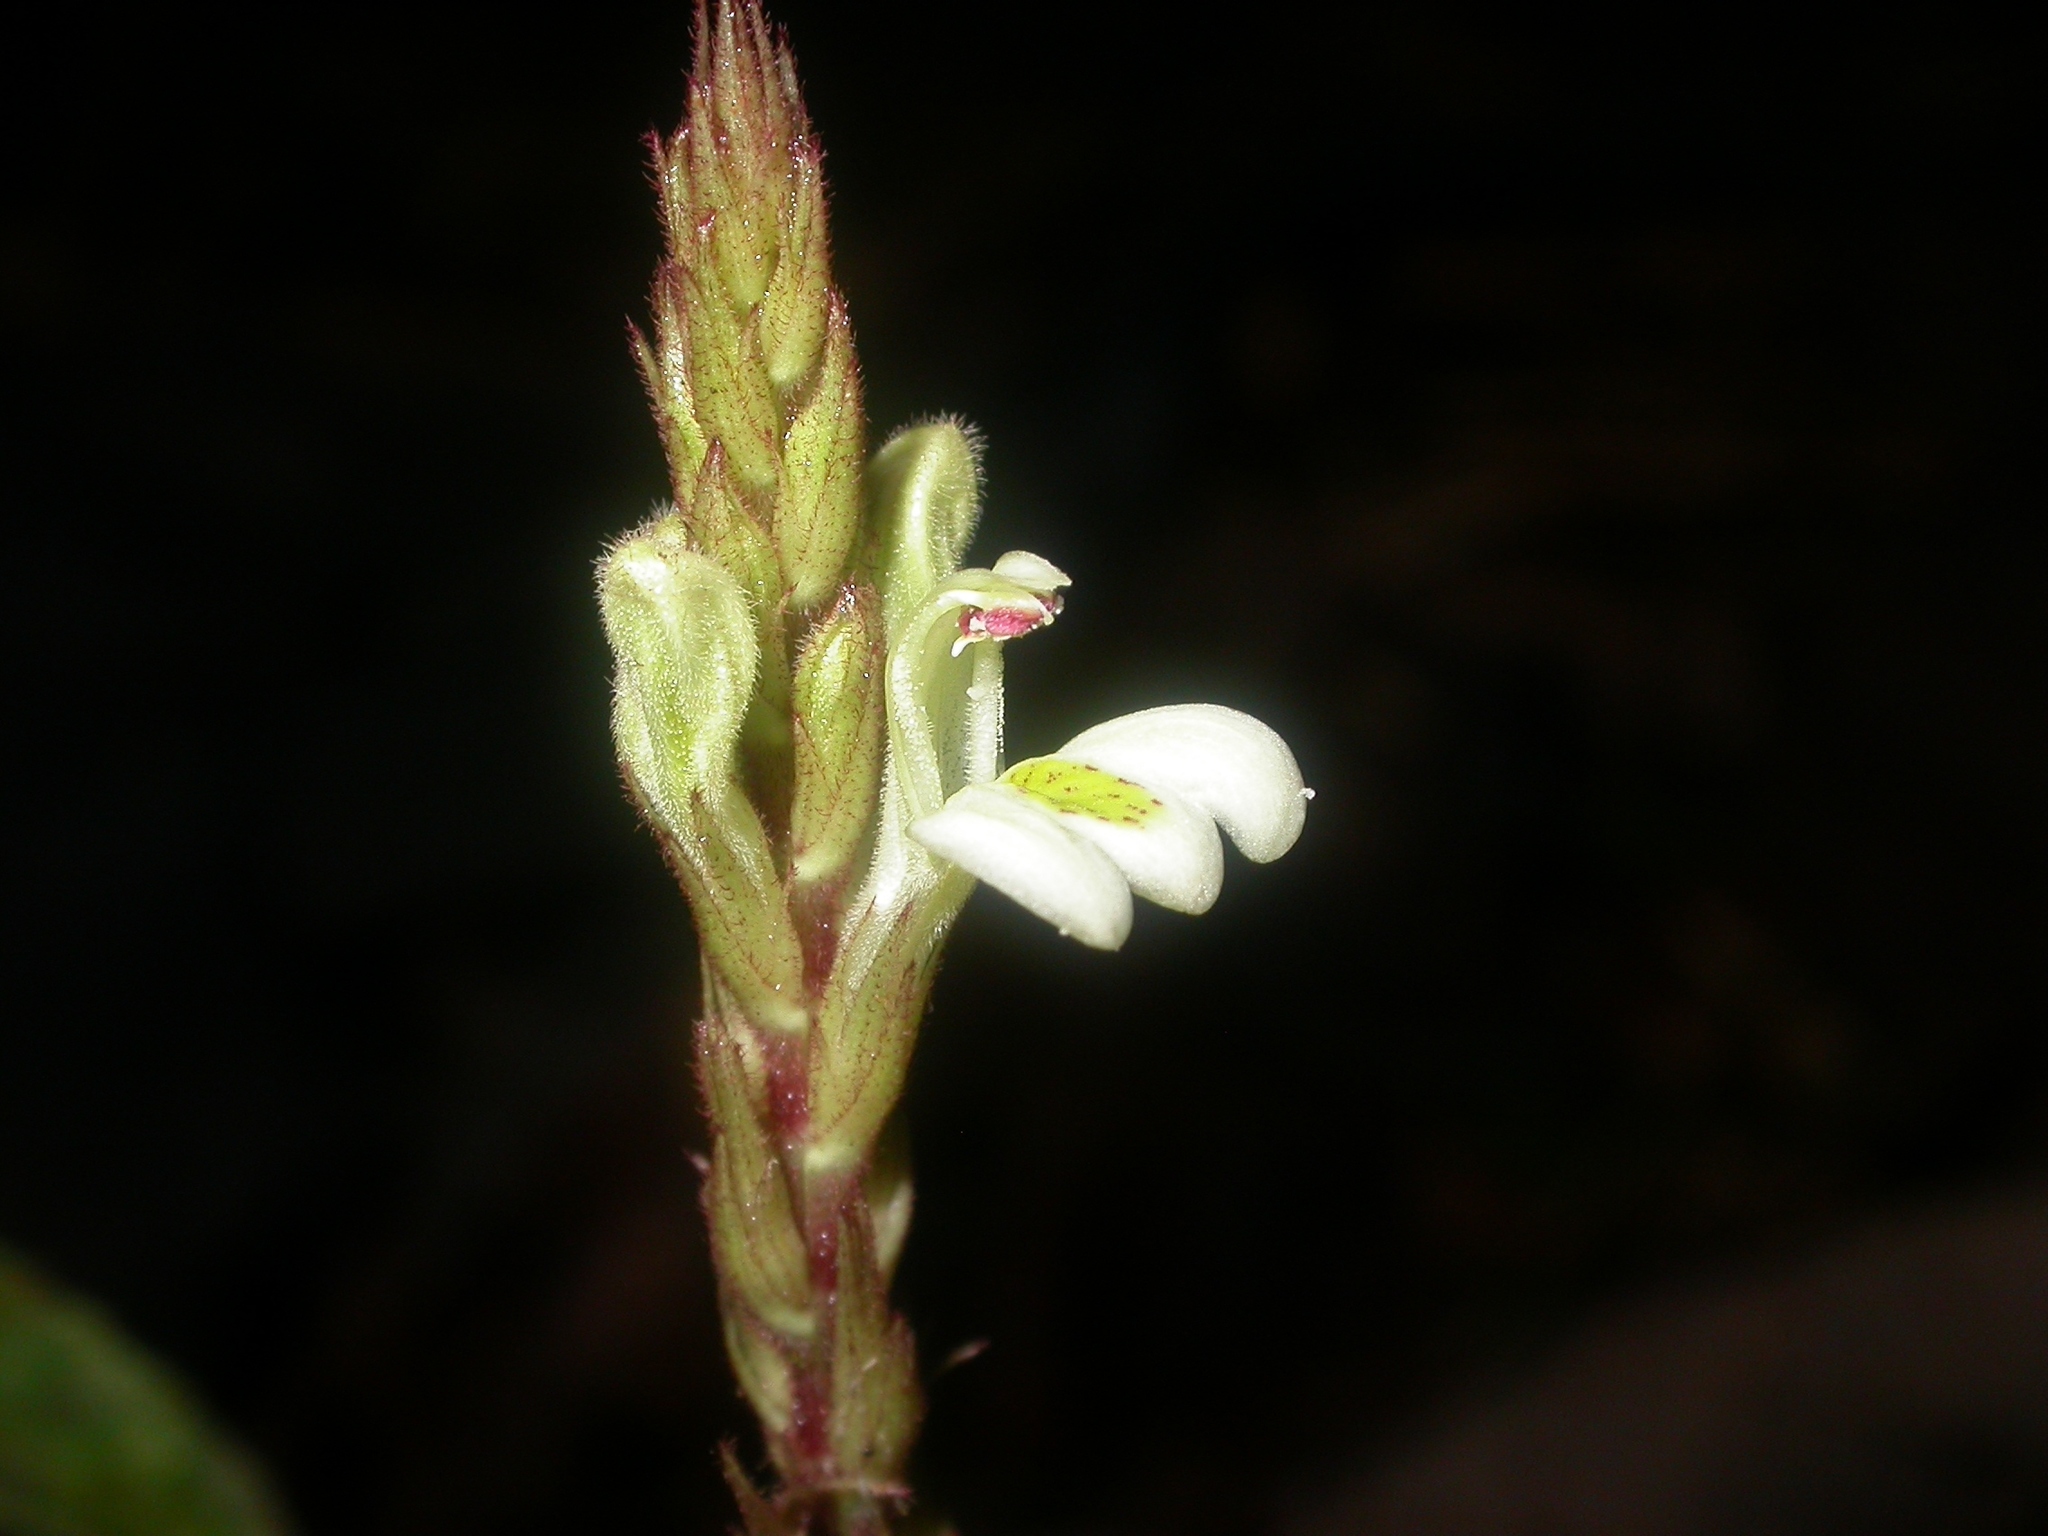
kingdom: Plantae
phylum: Tracheophyta
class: Magnoliopsida
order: Lamiales
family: Acanthaceae
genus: Justicia
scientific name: Justicia chamaephyton
